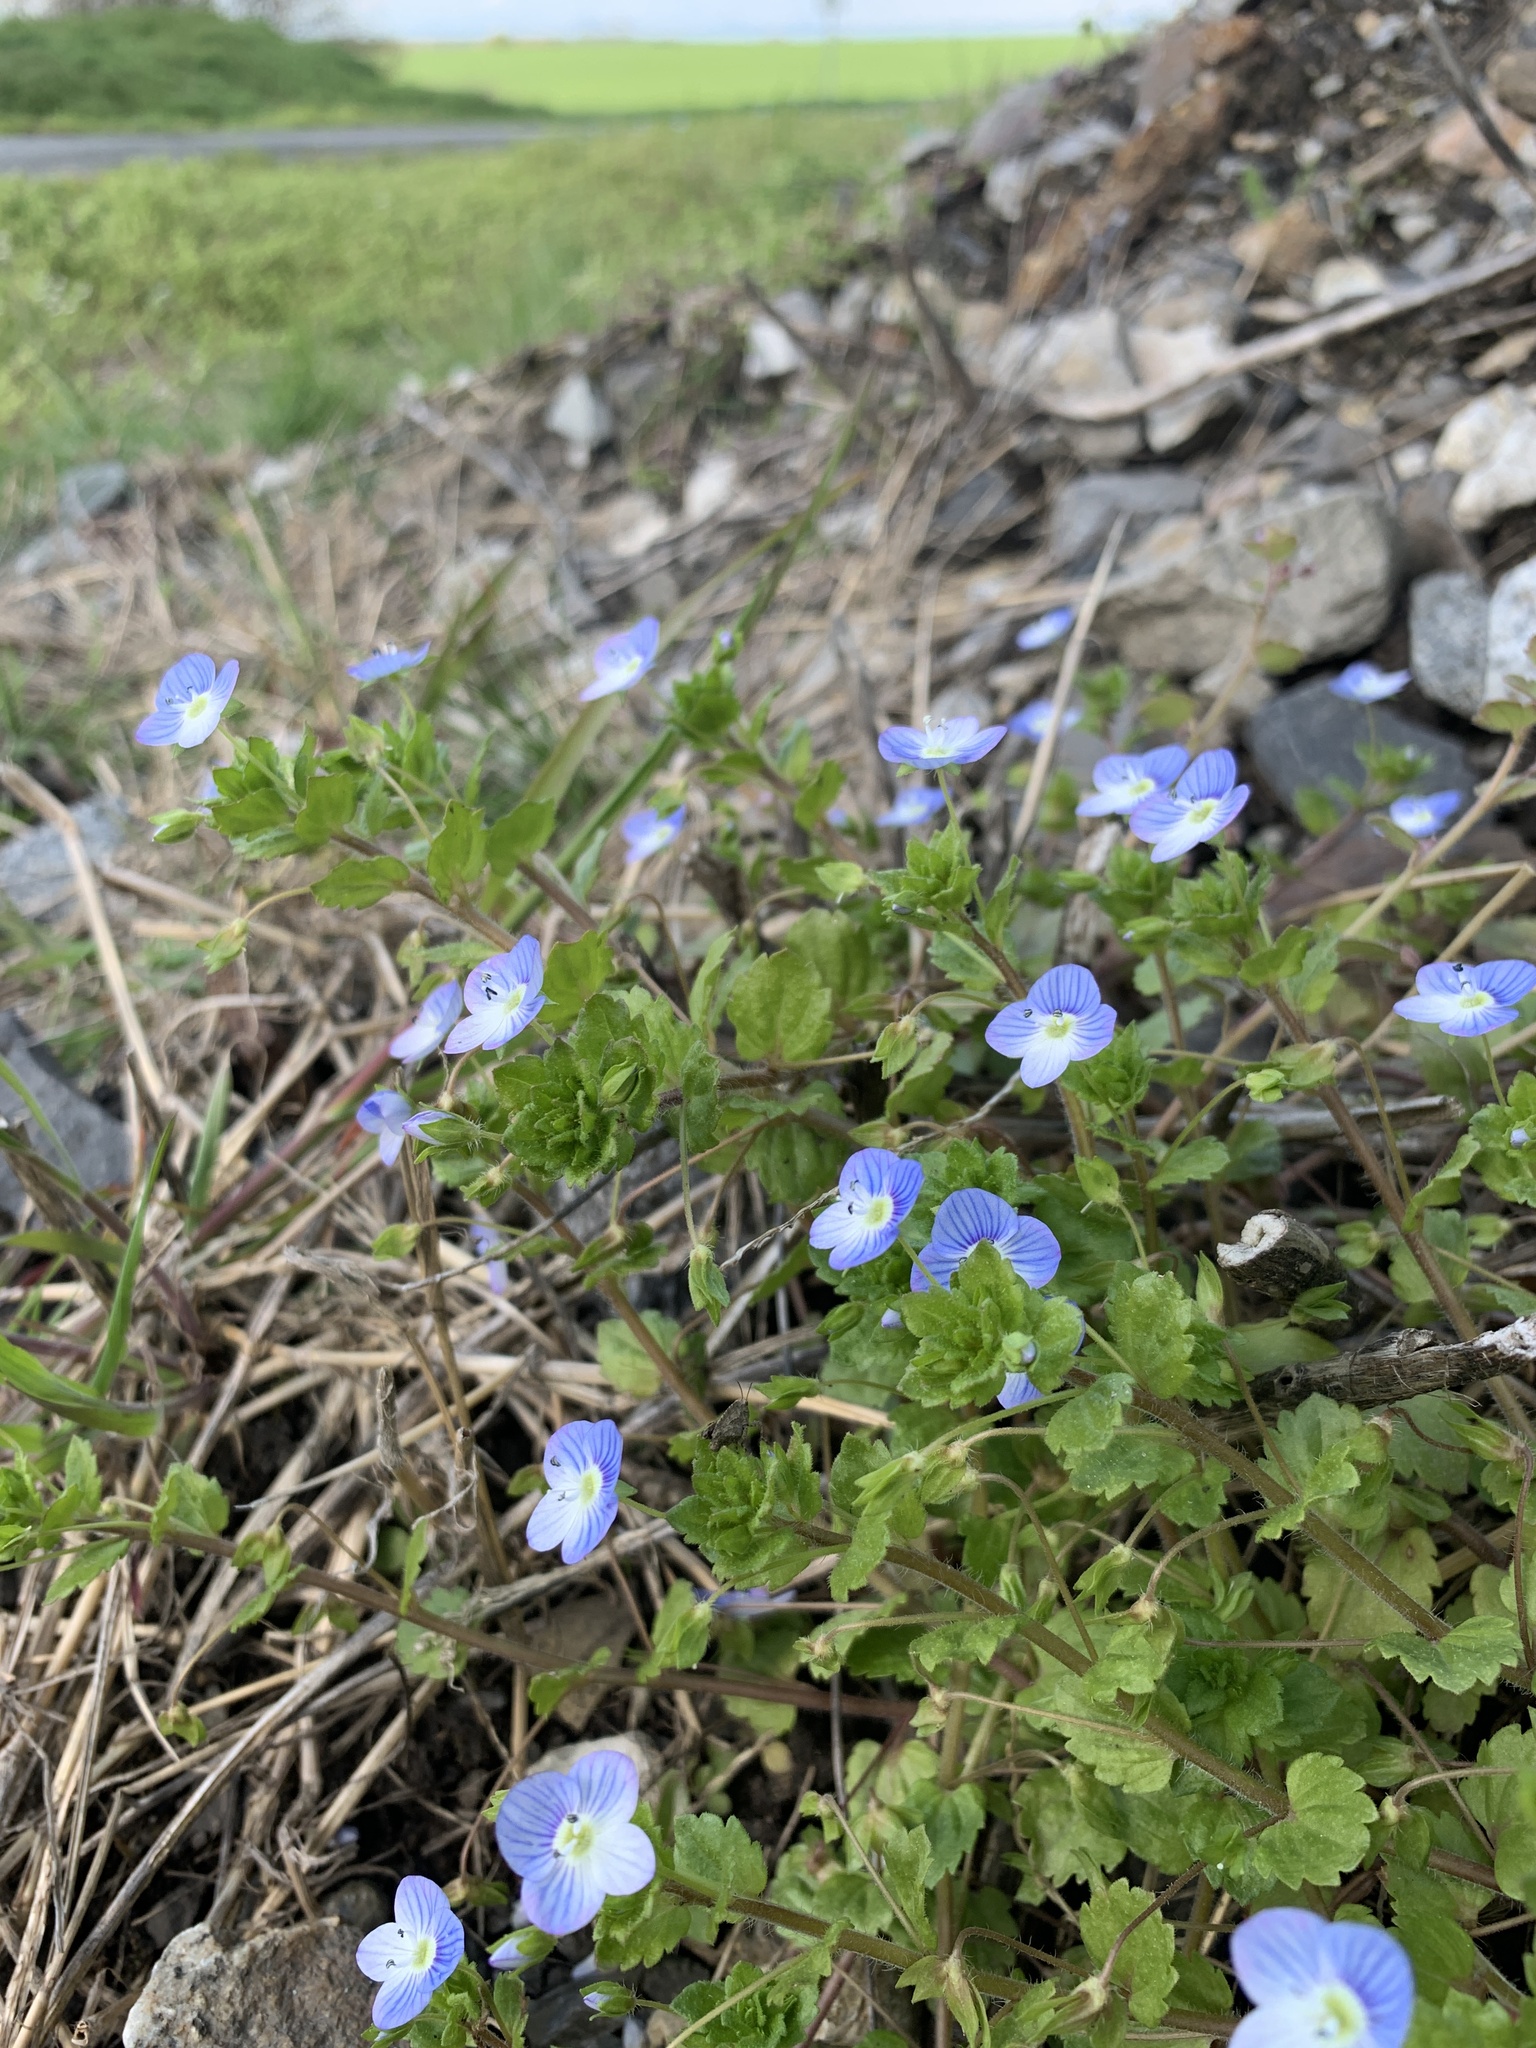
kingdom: Plantae
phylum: Tracheophyta
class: Magnoliopsida
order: Lamiales
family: Plantaginaceae
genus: Veronica
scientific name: Veronica persica
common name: Common field-speedwell
